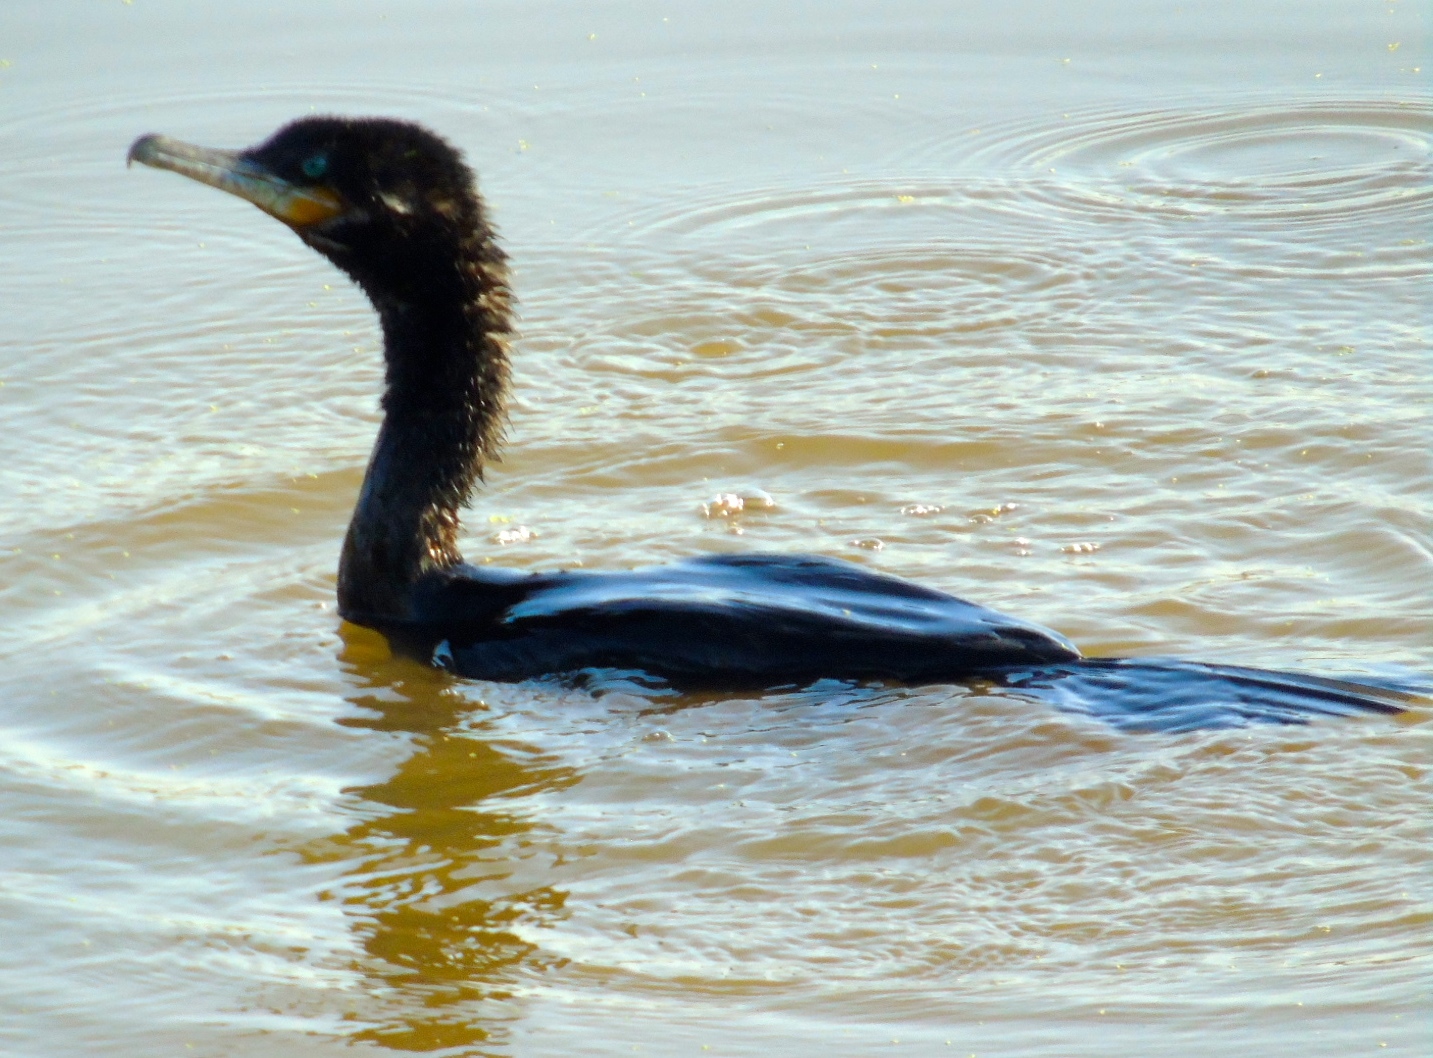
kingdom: Animalia
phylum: Chordata
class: Aves
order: Suliformes
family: Phalacrocoracidae
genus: Phalacrocorax
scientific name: Phalacrocorax brasilianus
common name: Neotropic cormorant
